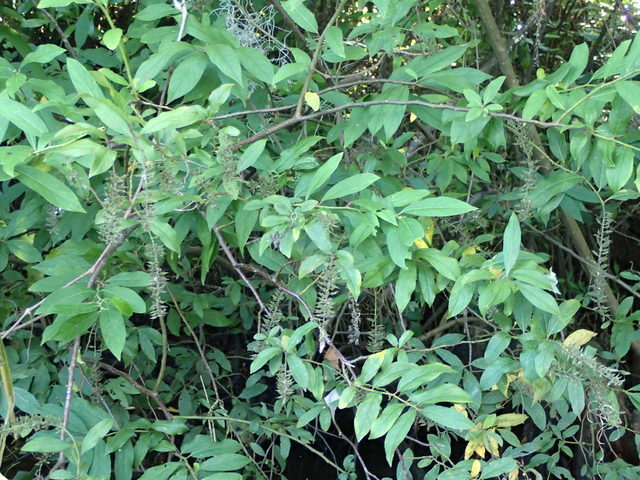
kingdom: Plantae
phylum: Tracheophyta
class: Magnoliopsida
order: Saxifragales
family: Iteaceae
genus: Itea
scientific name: Itea virginica
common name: Sweetspire
